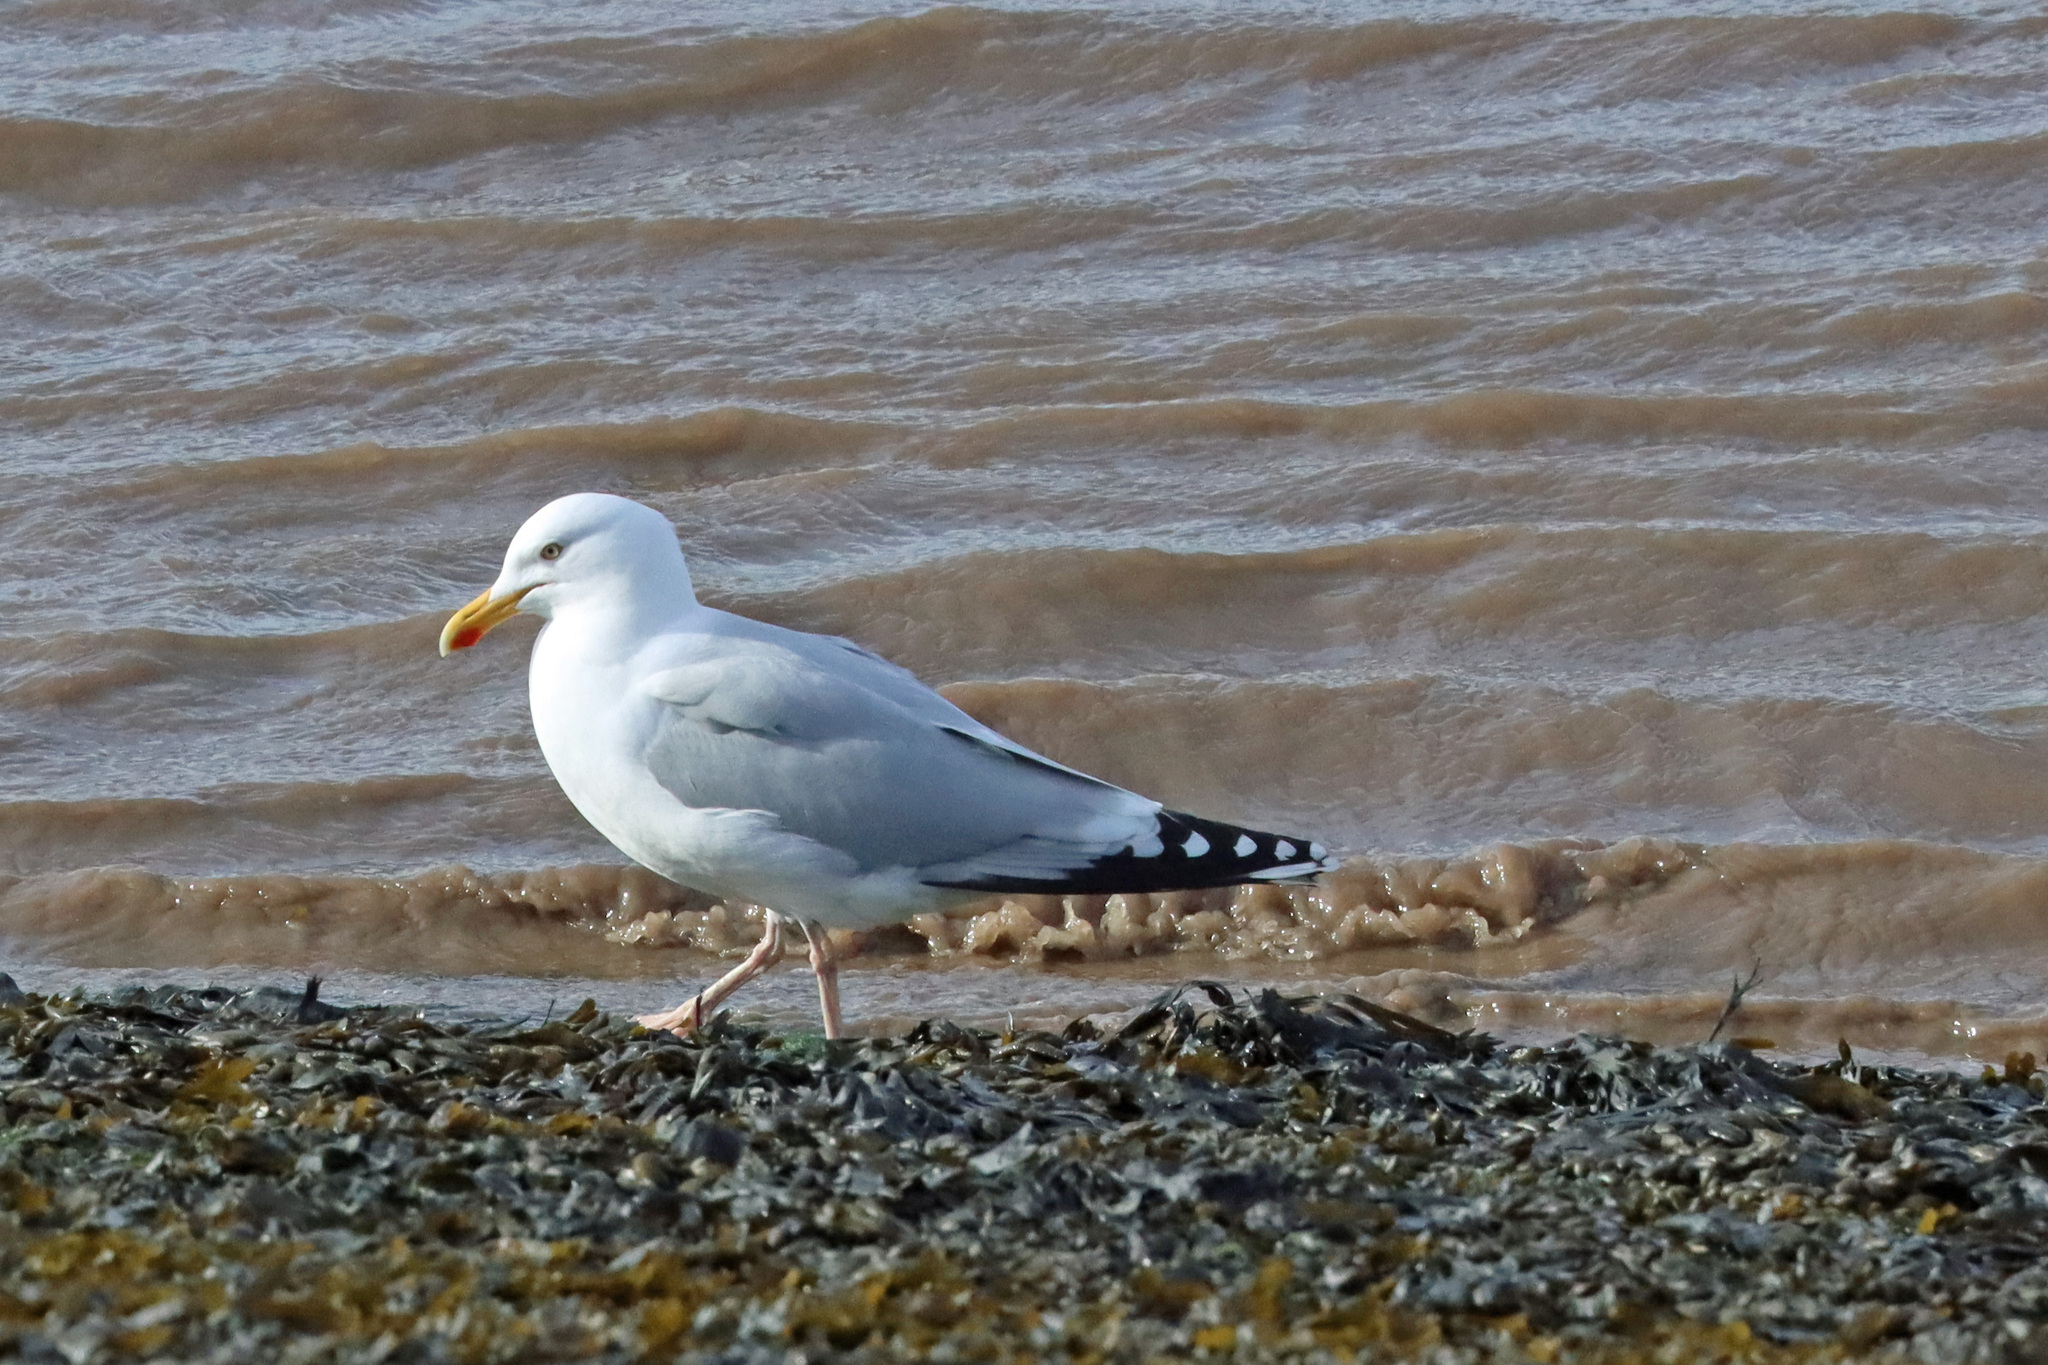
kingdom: Animalia
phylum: Chordata
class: Aves
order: Charadriiformes
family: Laridae
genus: Larus
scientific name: Larus argentatus
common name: Herring gull
